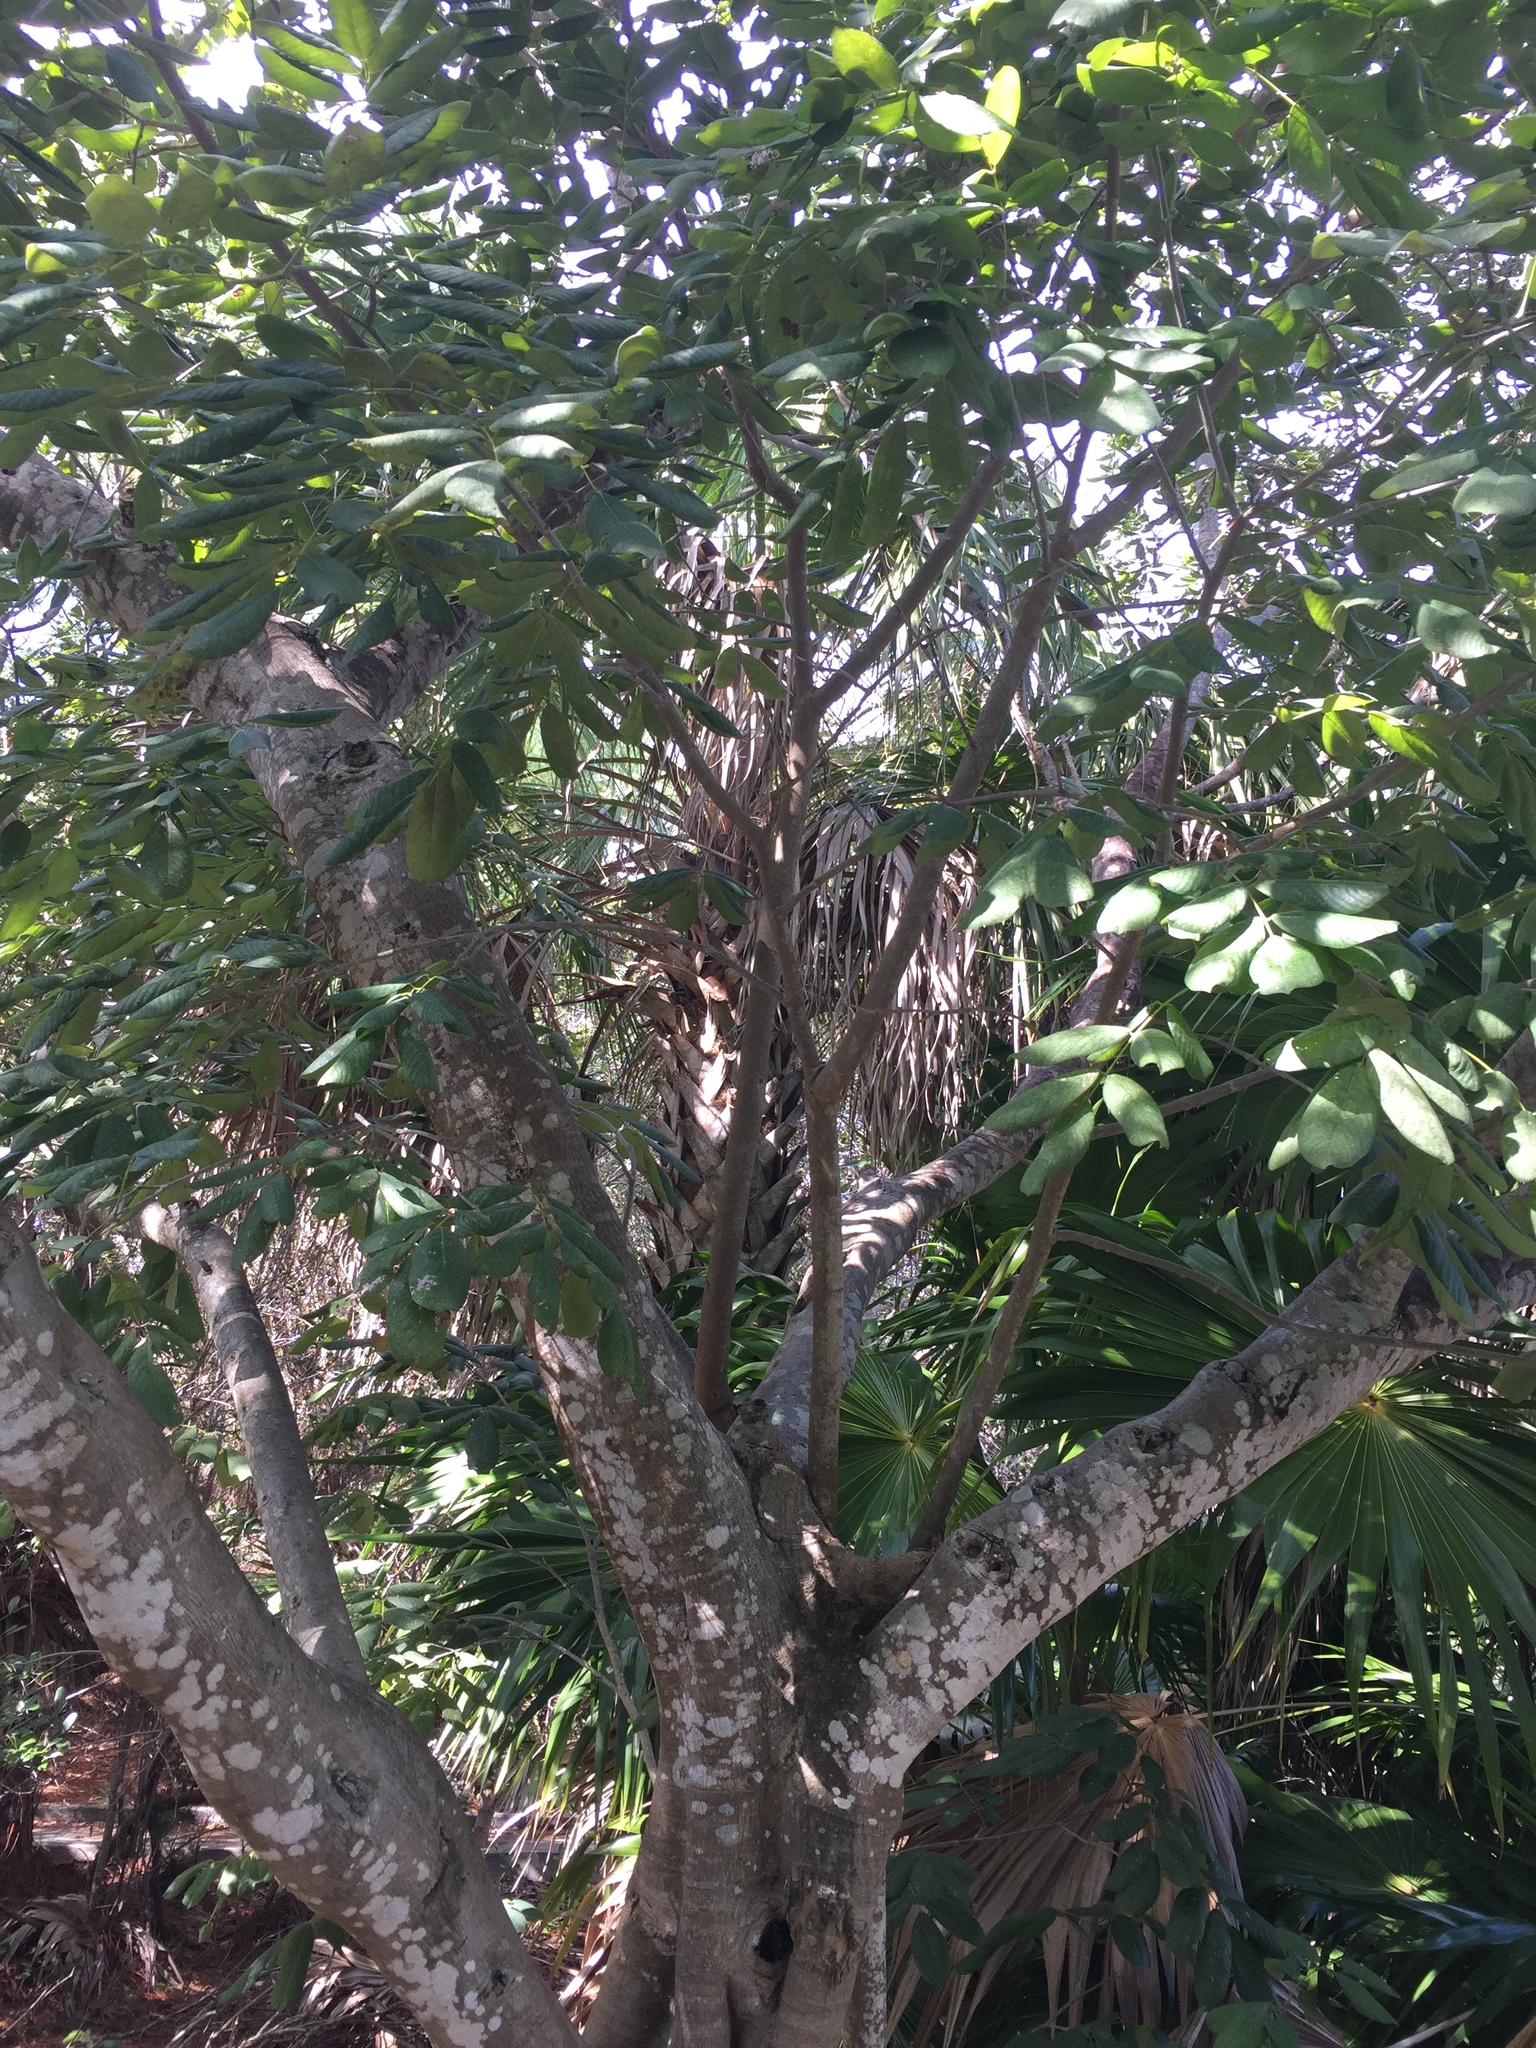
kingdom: Plantae
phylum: Tracheophyta
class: Magnoliopsida
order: Fabales
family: Fabaceae
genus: Piscidia
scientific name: Piscidia piscipula
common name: Florida fishpoison tree
